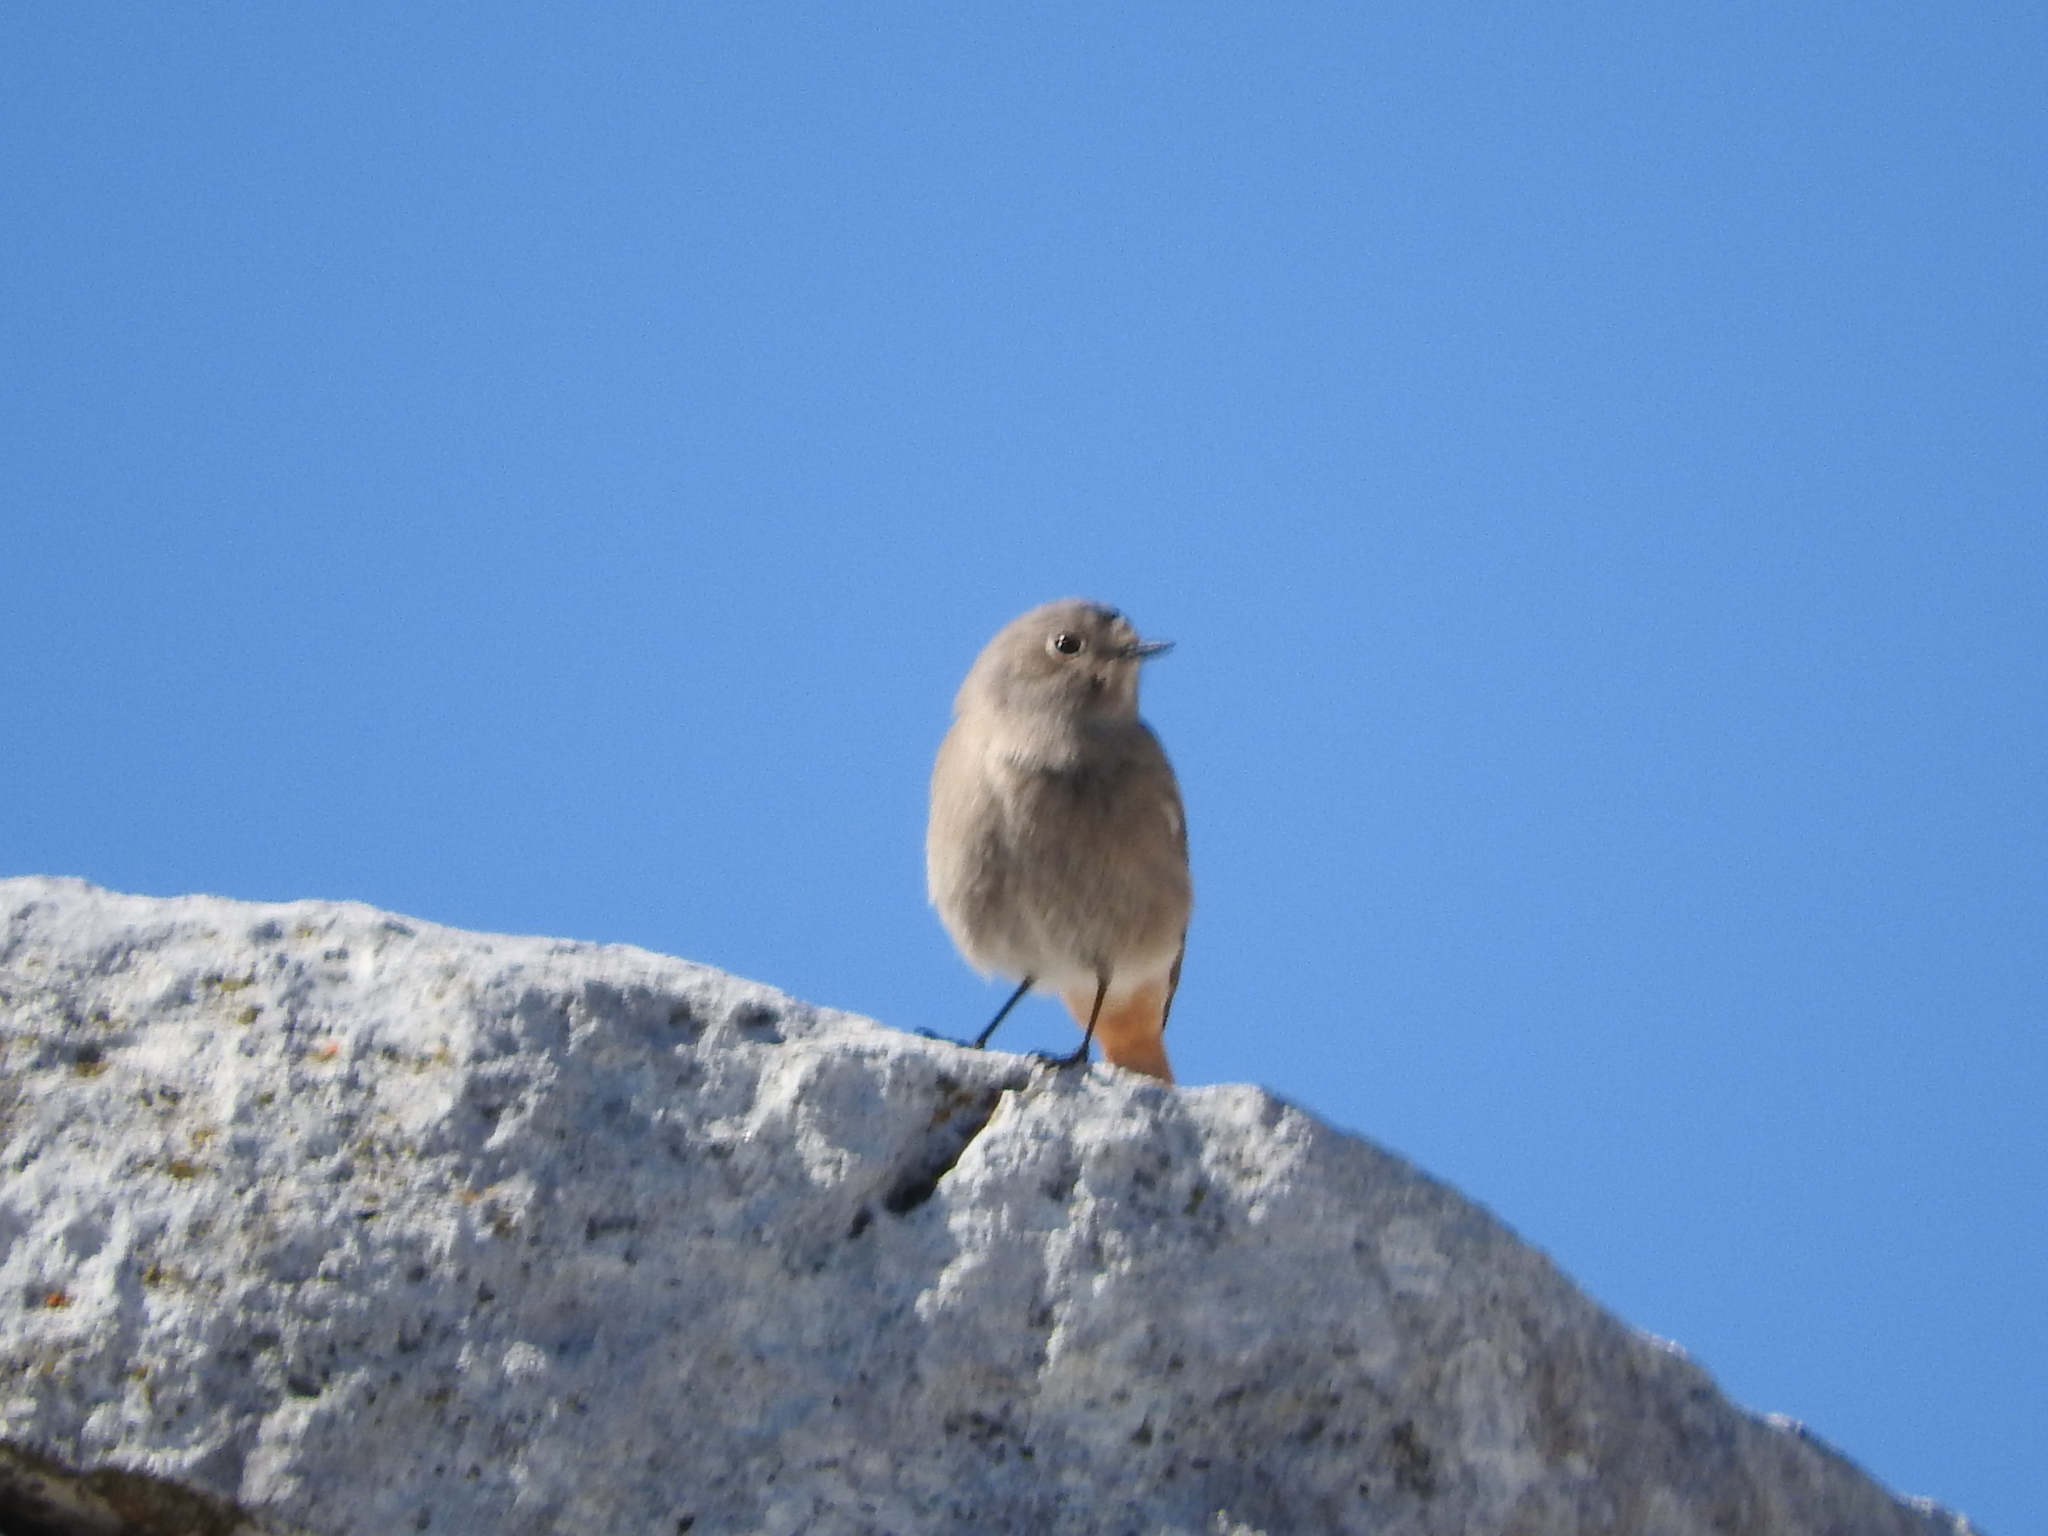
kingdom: Animalia
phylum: Chordata
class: Aves
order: Passeriformes
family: Muscicapidae
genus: Phoenicurus
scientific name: Phoenicurus ochruros
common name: Black redstart
